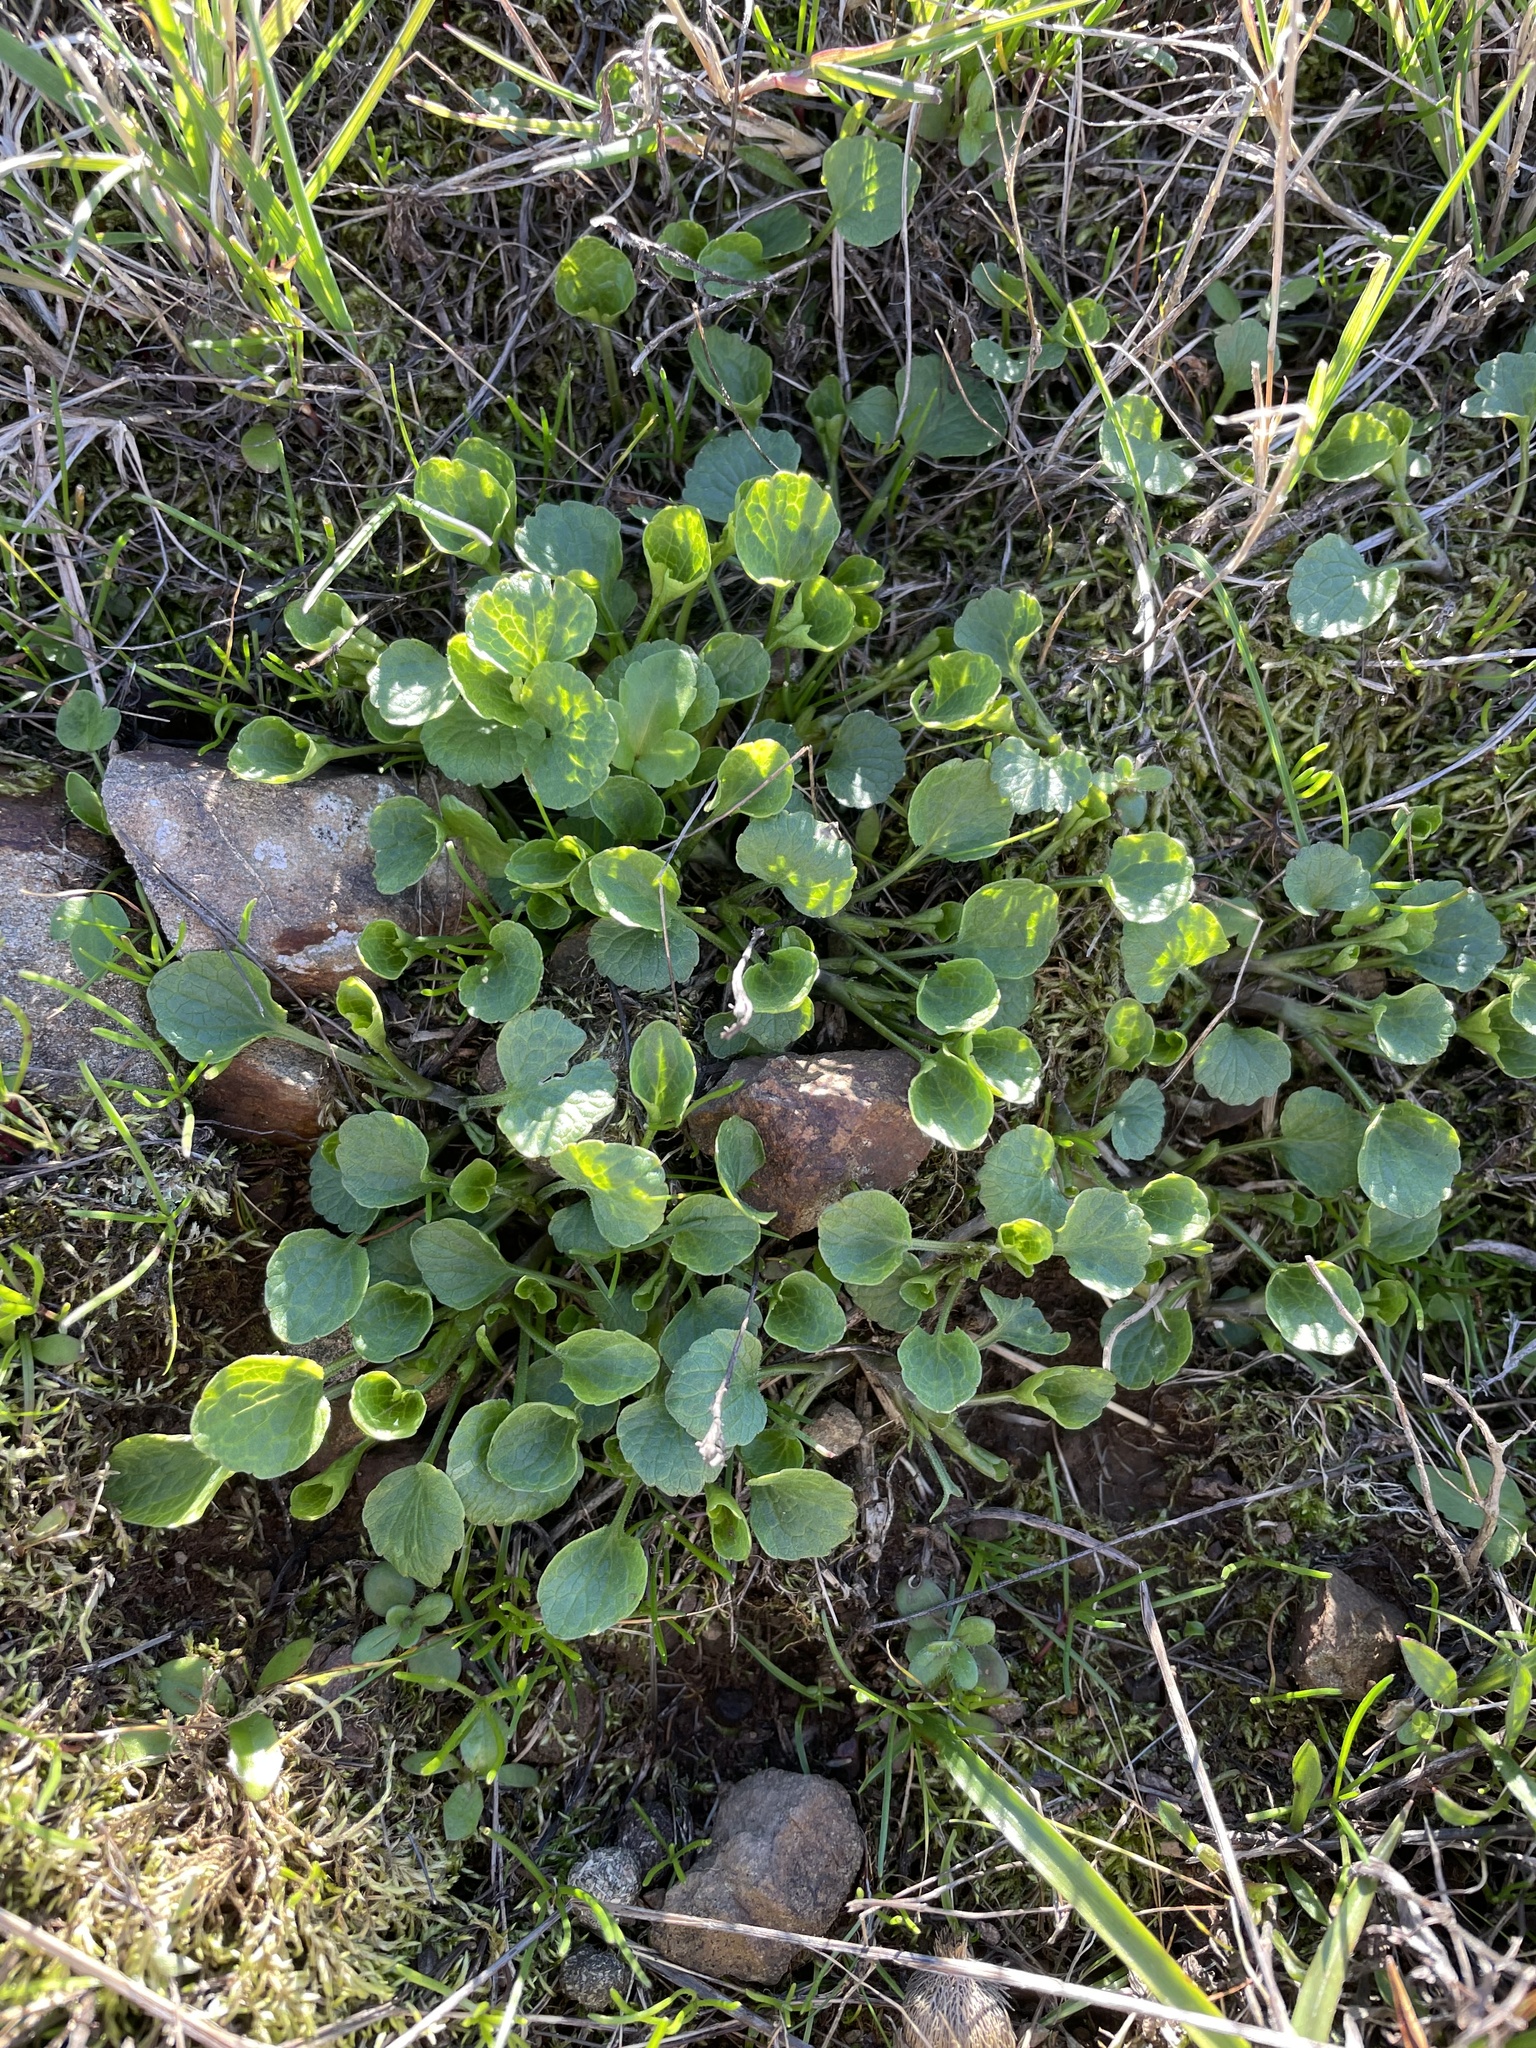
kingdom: Plantae
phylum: Tracheophyta
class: Magnoliopsida
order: Malpighiales
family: Violaceae
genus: Viola
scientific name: Viola pedunculata
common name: California golden violet
